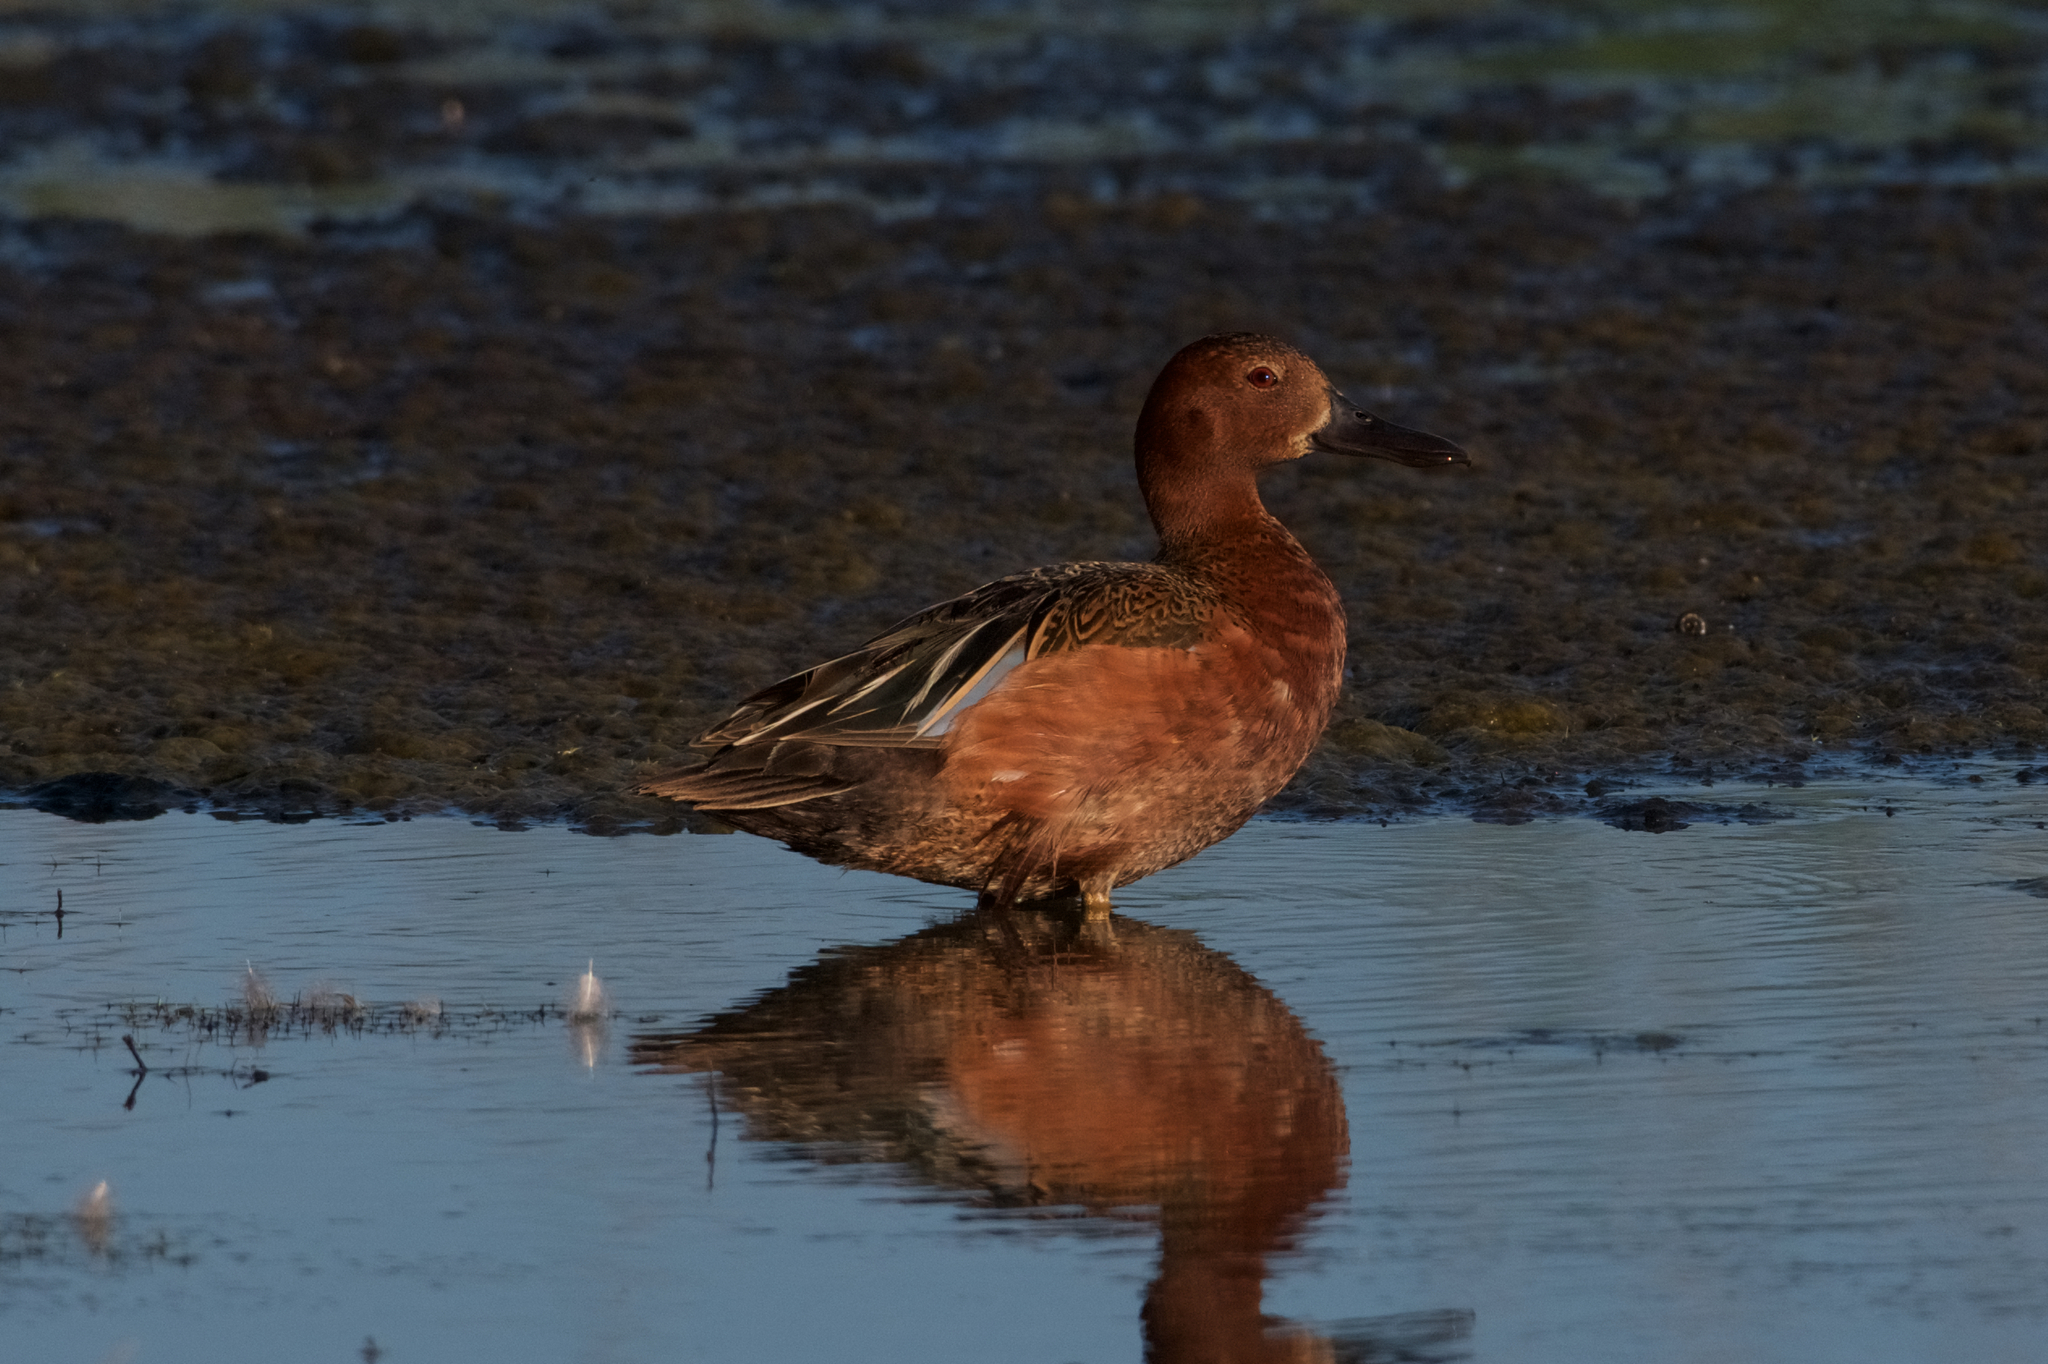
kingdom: Animalia
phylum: Chordata
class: Aves
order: Anseriformes
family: Anatidae
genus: Spatula
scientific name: Spatula cyanoptera
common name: Cinnamon teal
